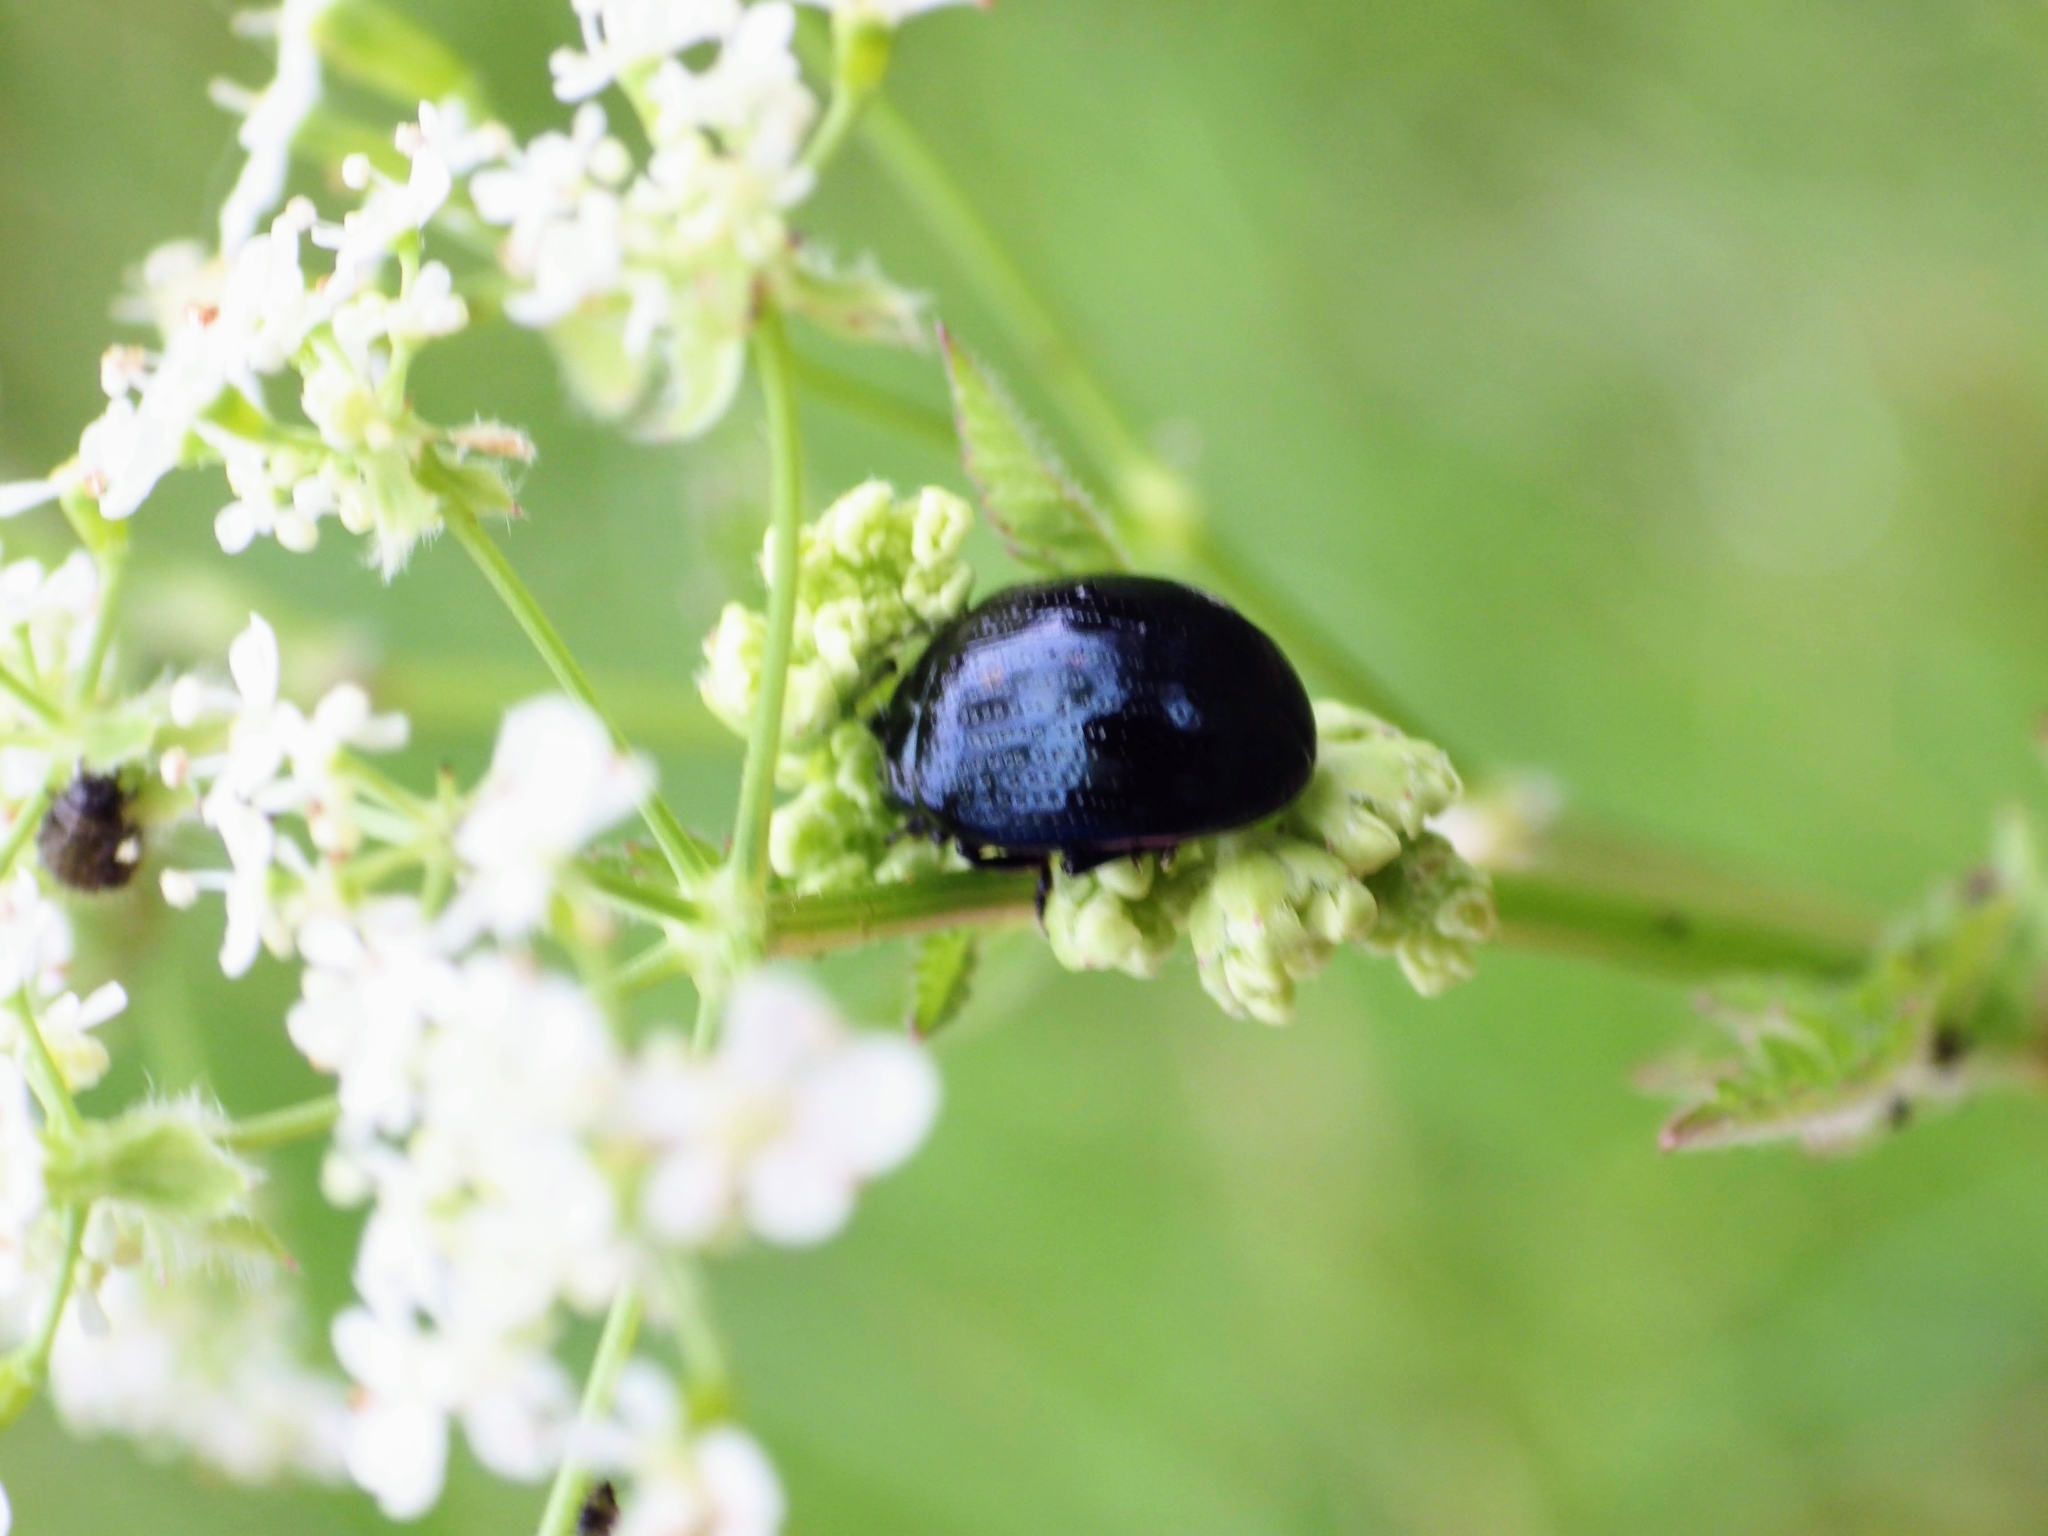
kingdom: Animalia
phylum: Arthropoda
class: Insecta
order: Coleoptera
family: Chrysomelidae
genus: Chrysolina
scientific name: Chrysolina oricalcia
